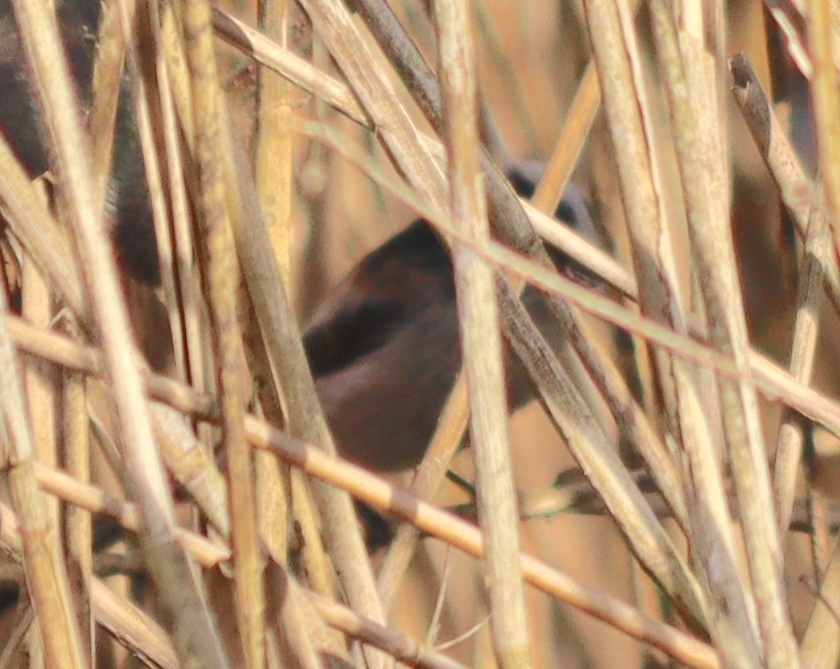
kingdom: Animalia
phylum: Chordata
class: Aves
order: Passeriformes
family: Aegithalidae
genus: Aegithalos
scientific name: Aegithalos caudatus
